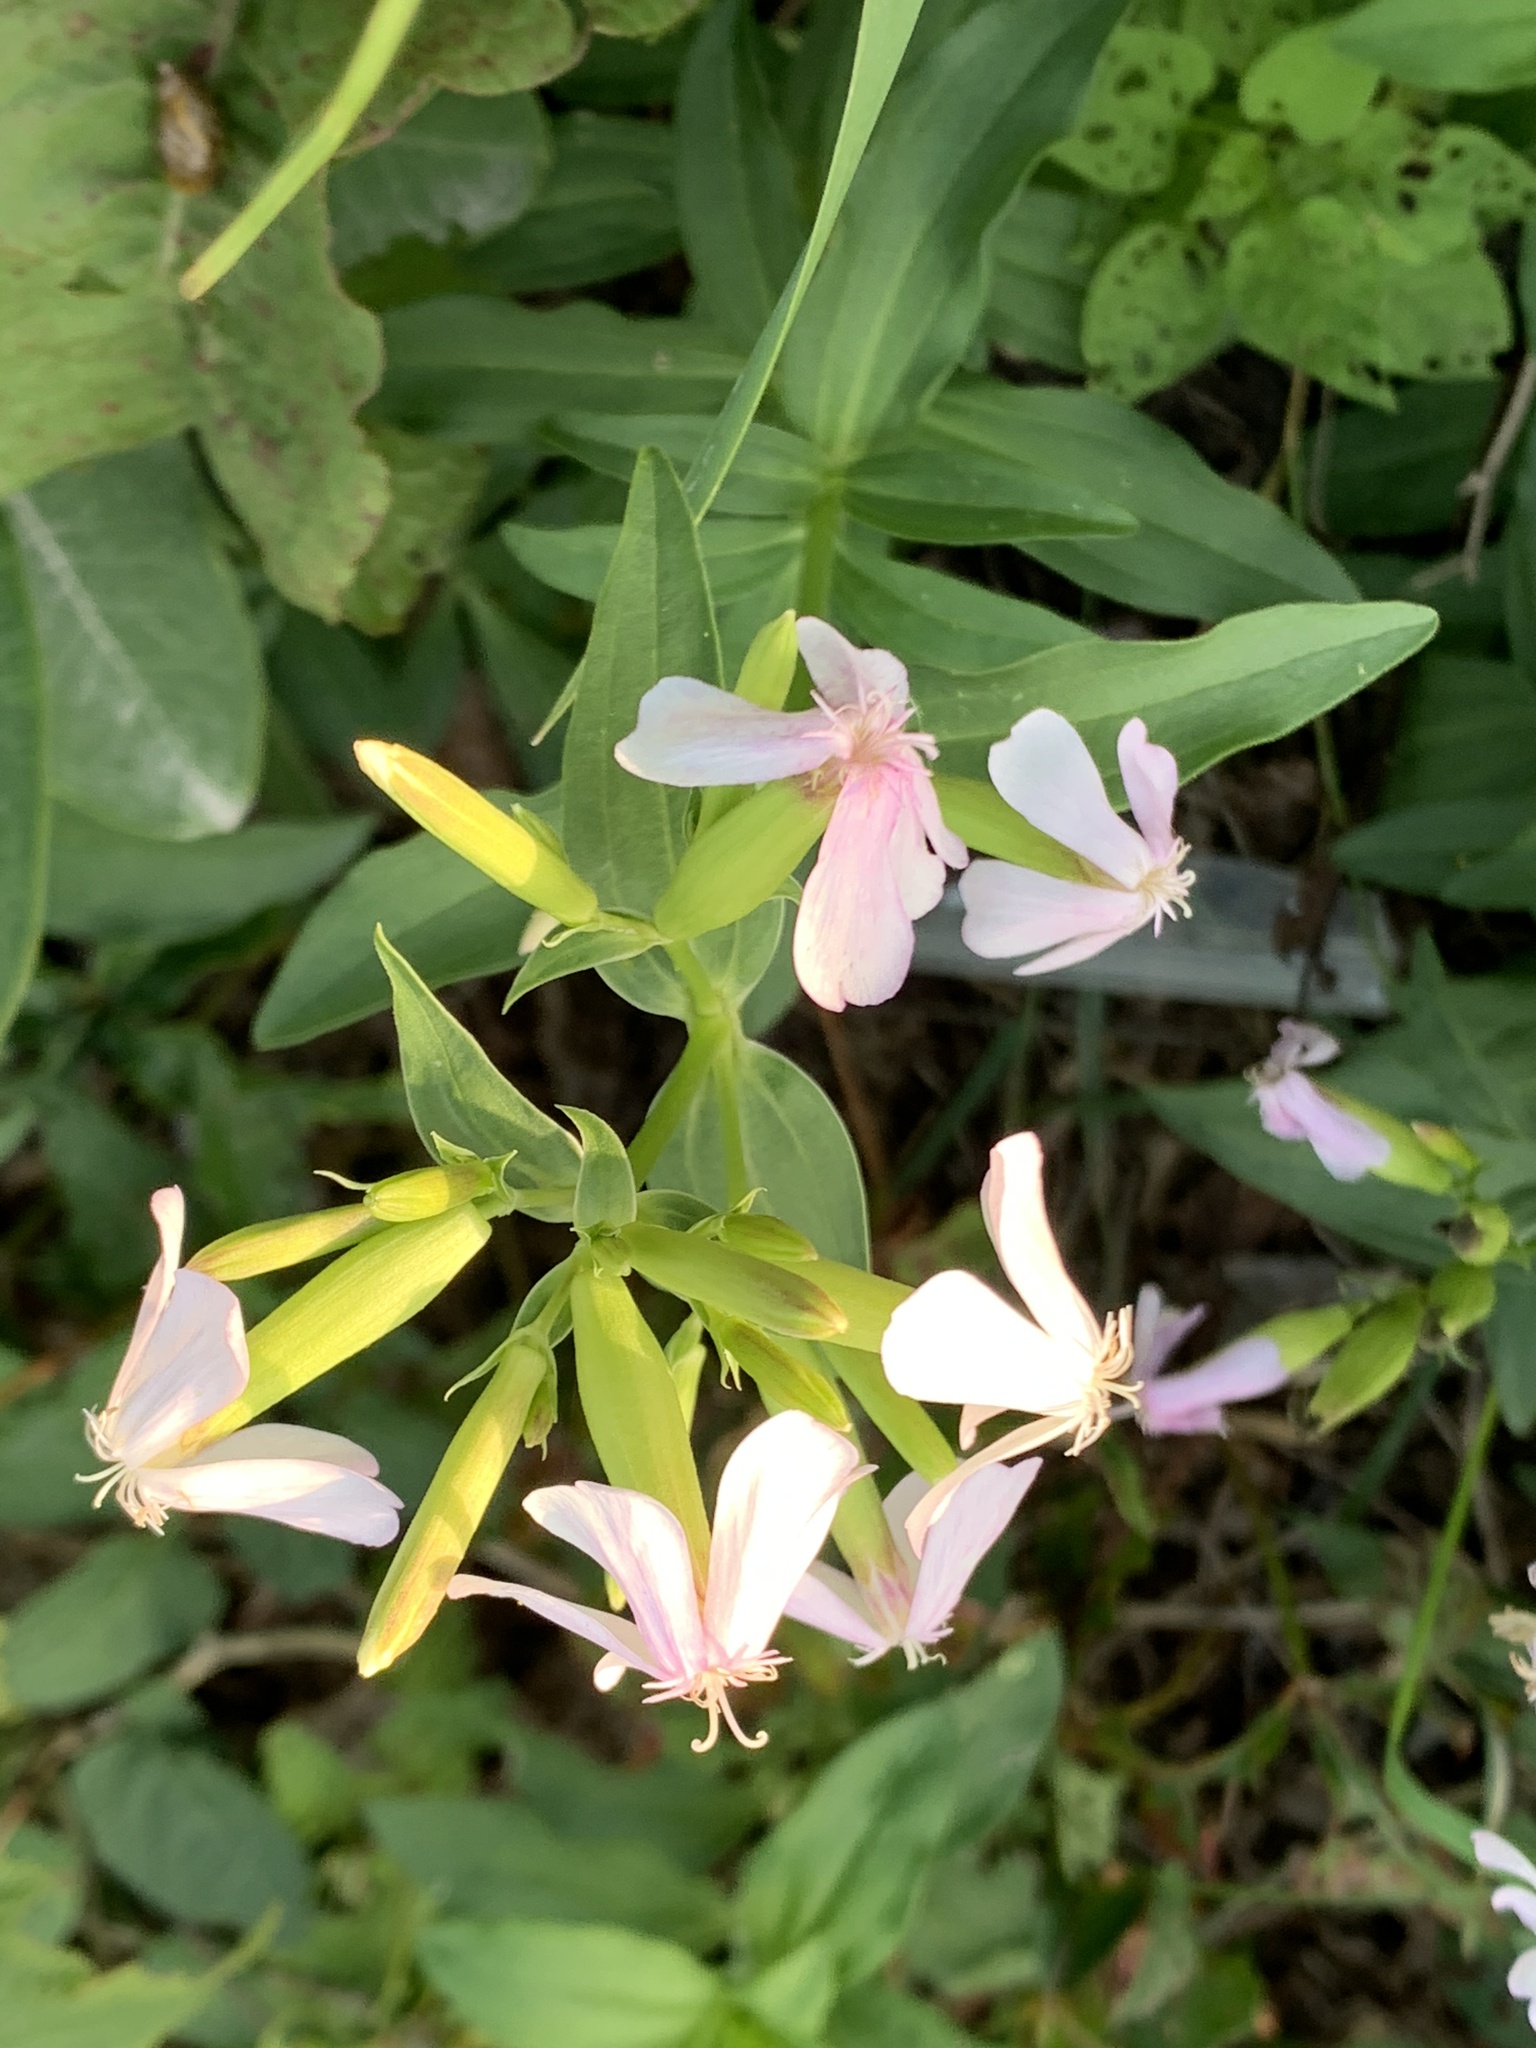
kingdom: Plantae
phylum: Tracheophyta
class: Magnoliopsida
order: Caryophyllales
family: Caryophyllaceae
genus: Saponaria
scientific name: Saponaria officinalis
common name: Soapwort
